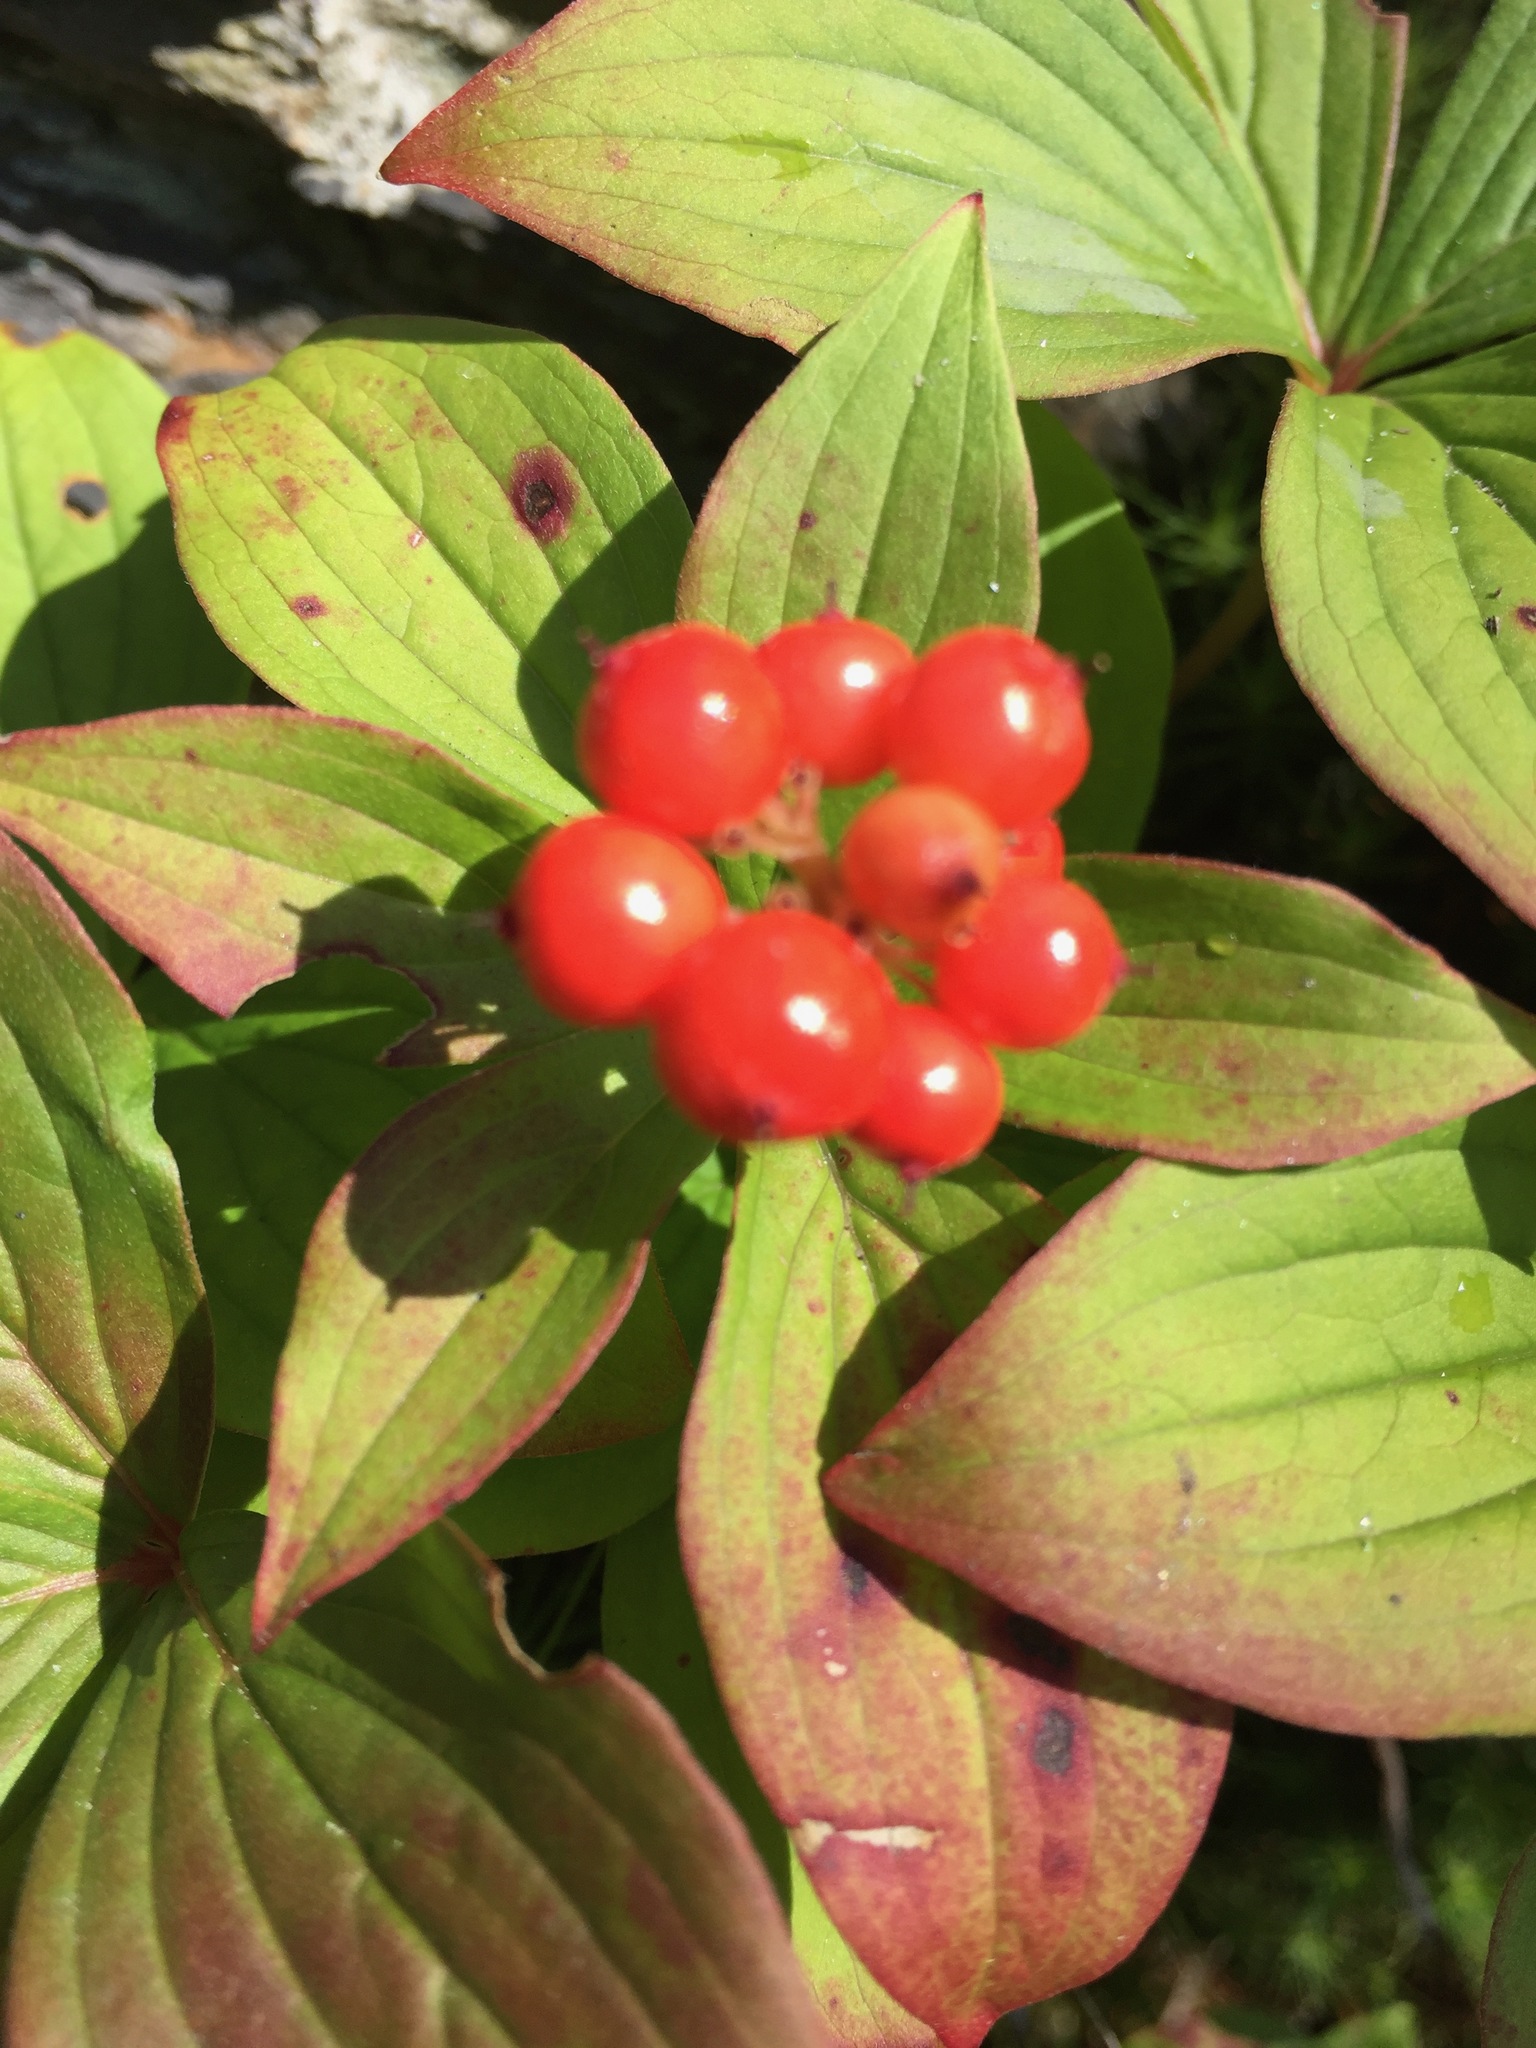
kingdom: Plantae
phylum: Tracheophyta
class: Magnoliopsida
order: Cornales
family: Cornaceae
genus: Cornus
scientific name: Cornus canadensis
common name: Creeping dogwood
